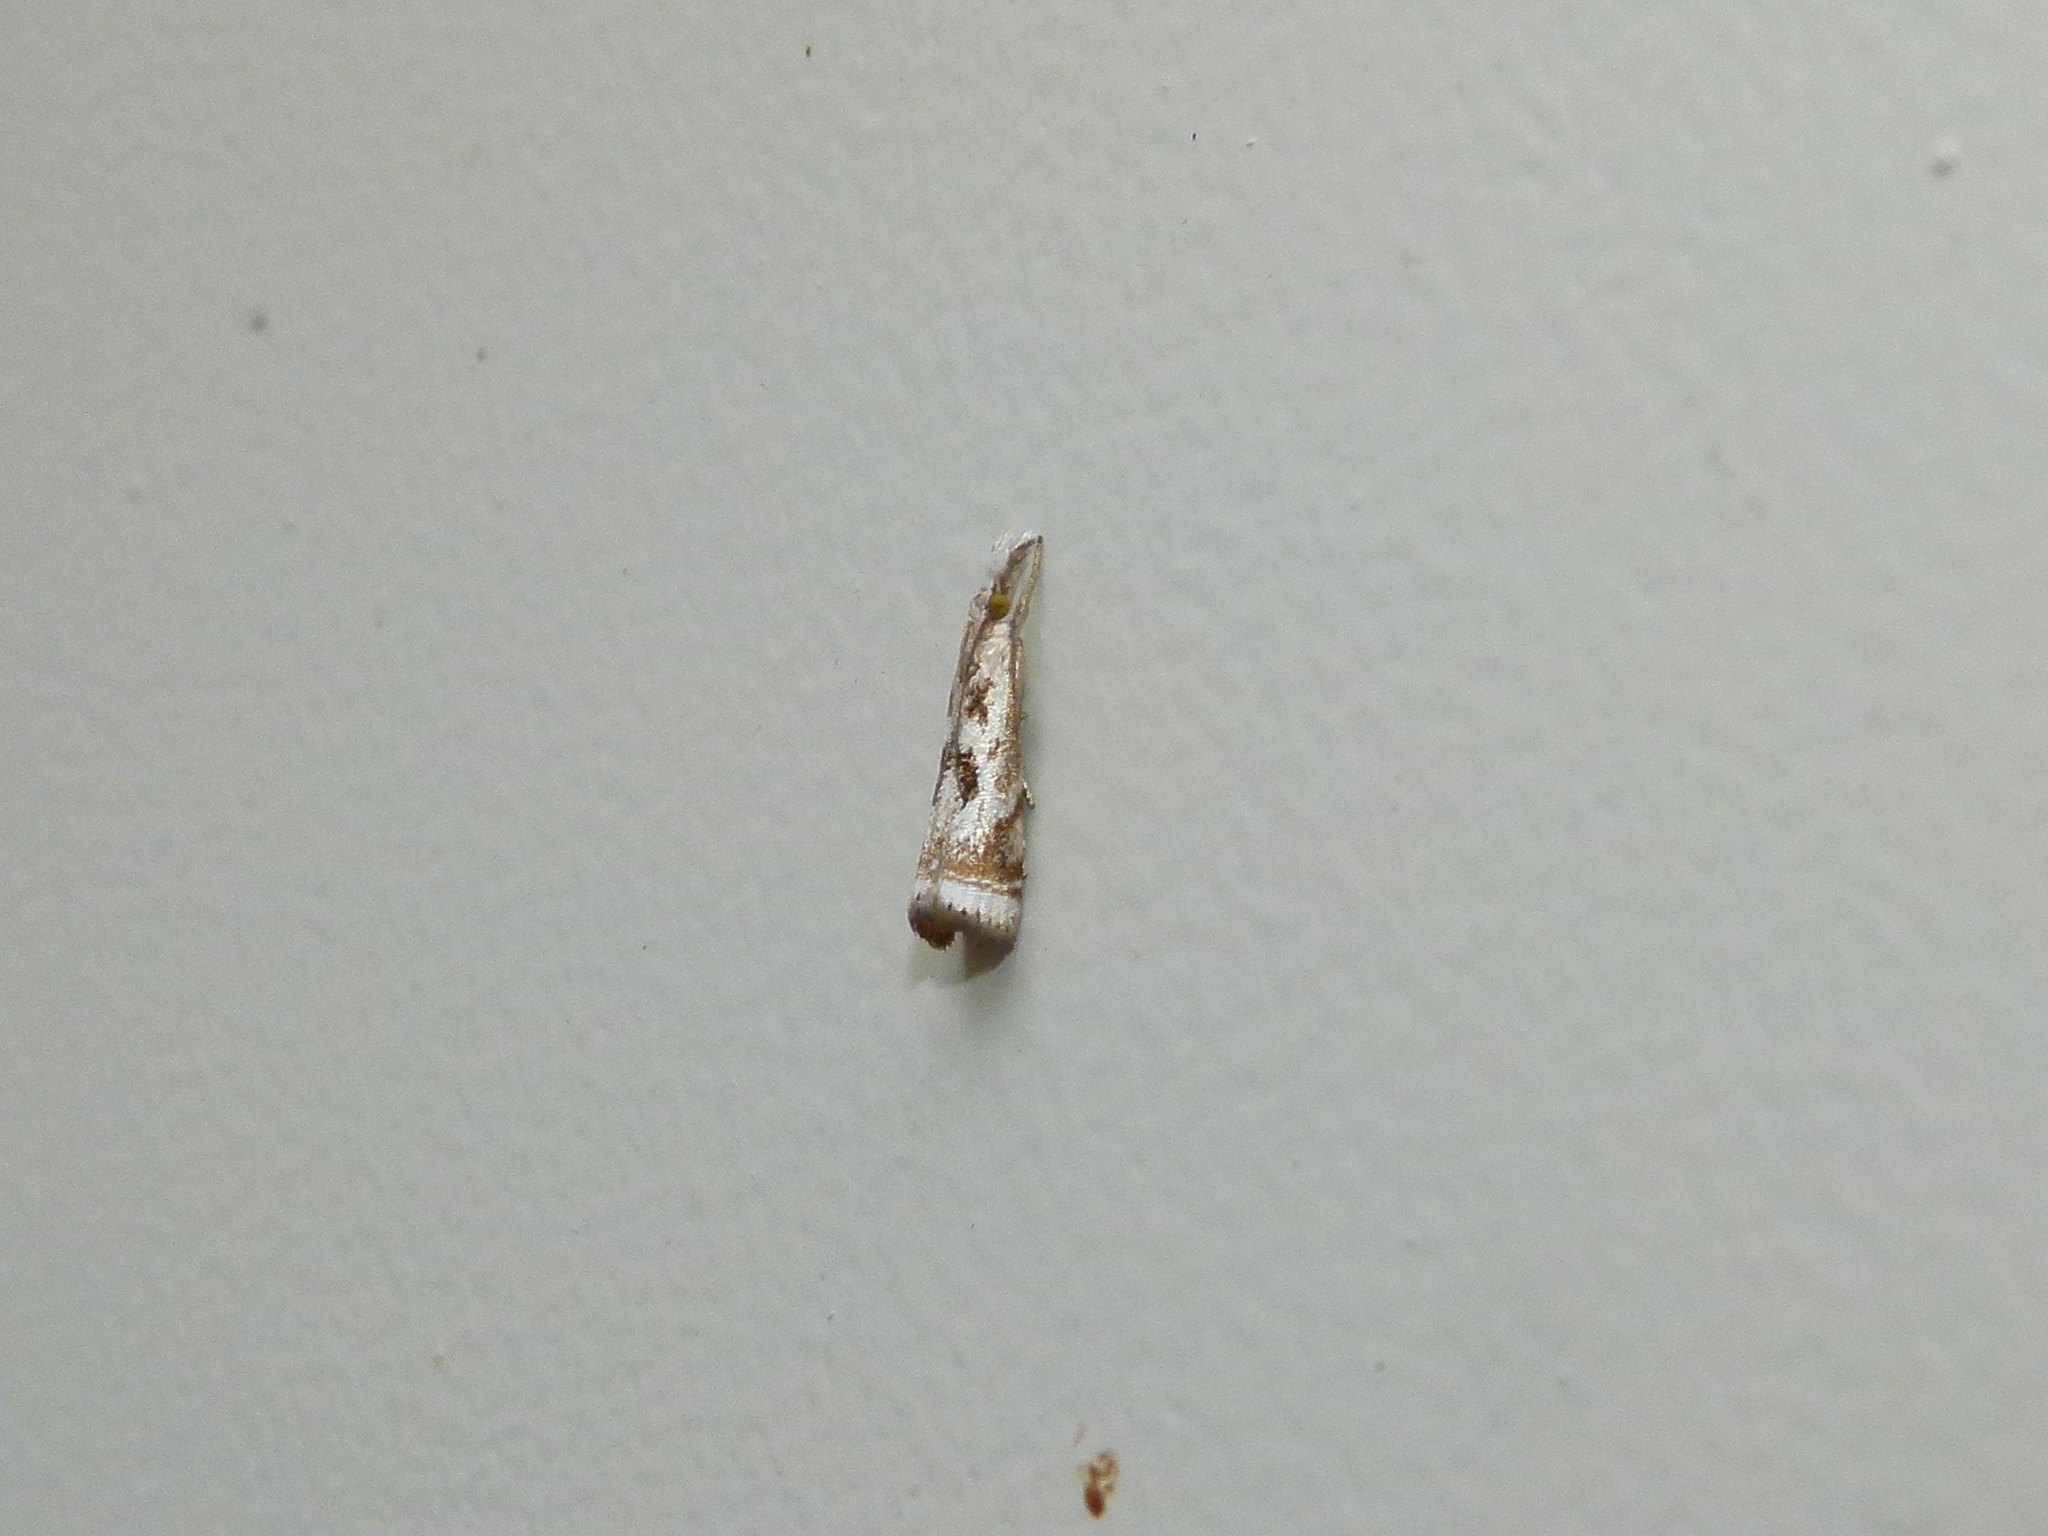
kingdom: Animalia
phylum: Arthropoda
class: Insecta
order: Lepidoptera
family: Crambidae
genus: Microcrambus
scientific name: Microcrambus elegans
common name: Elegant grass-veneer
